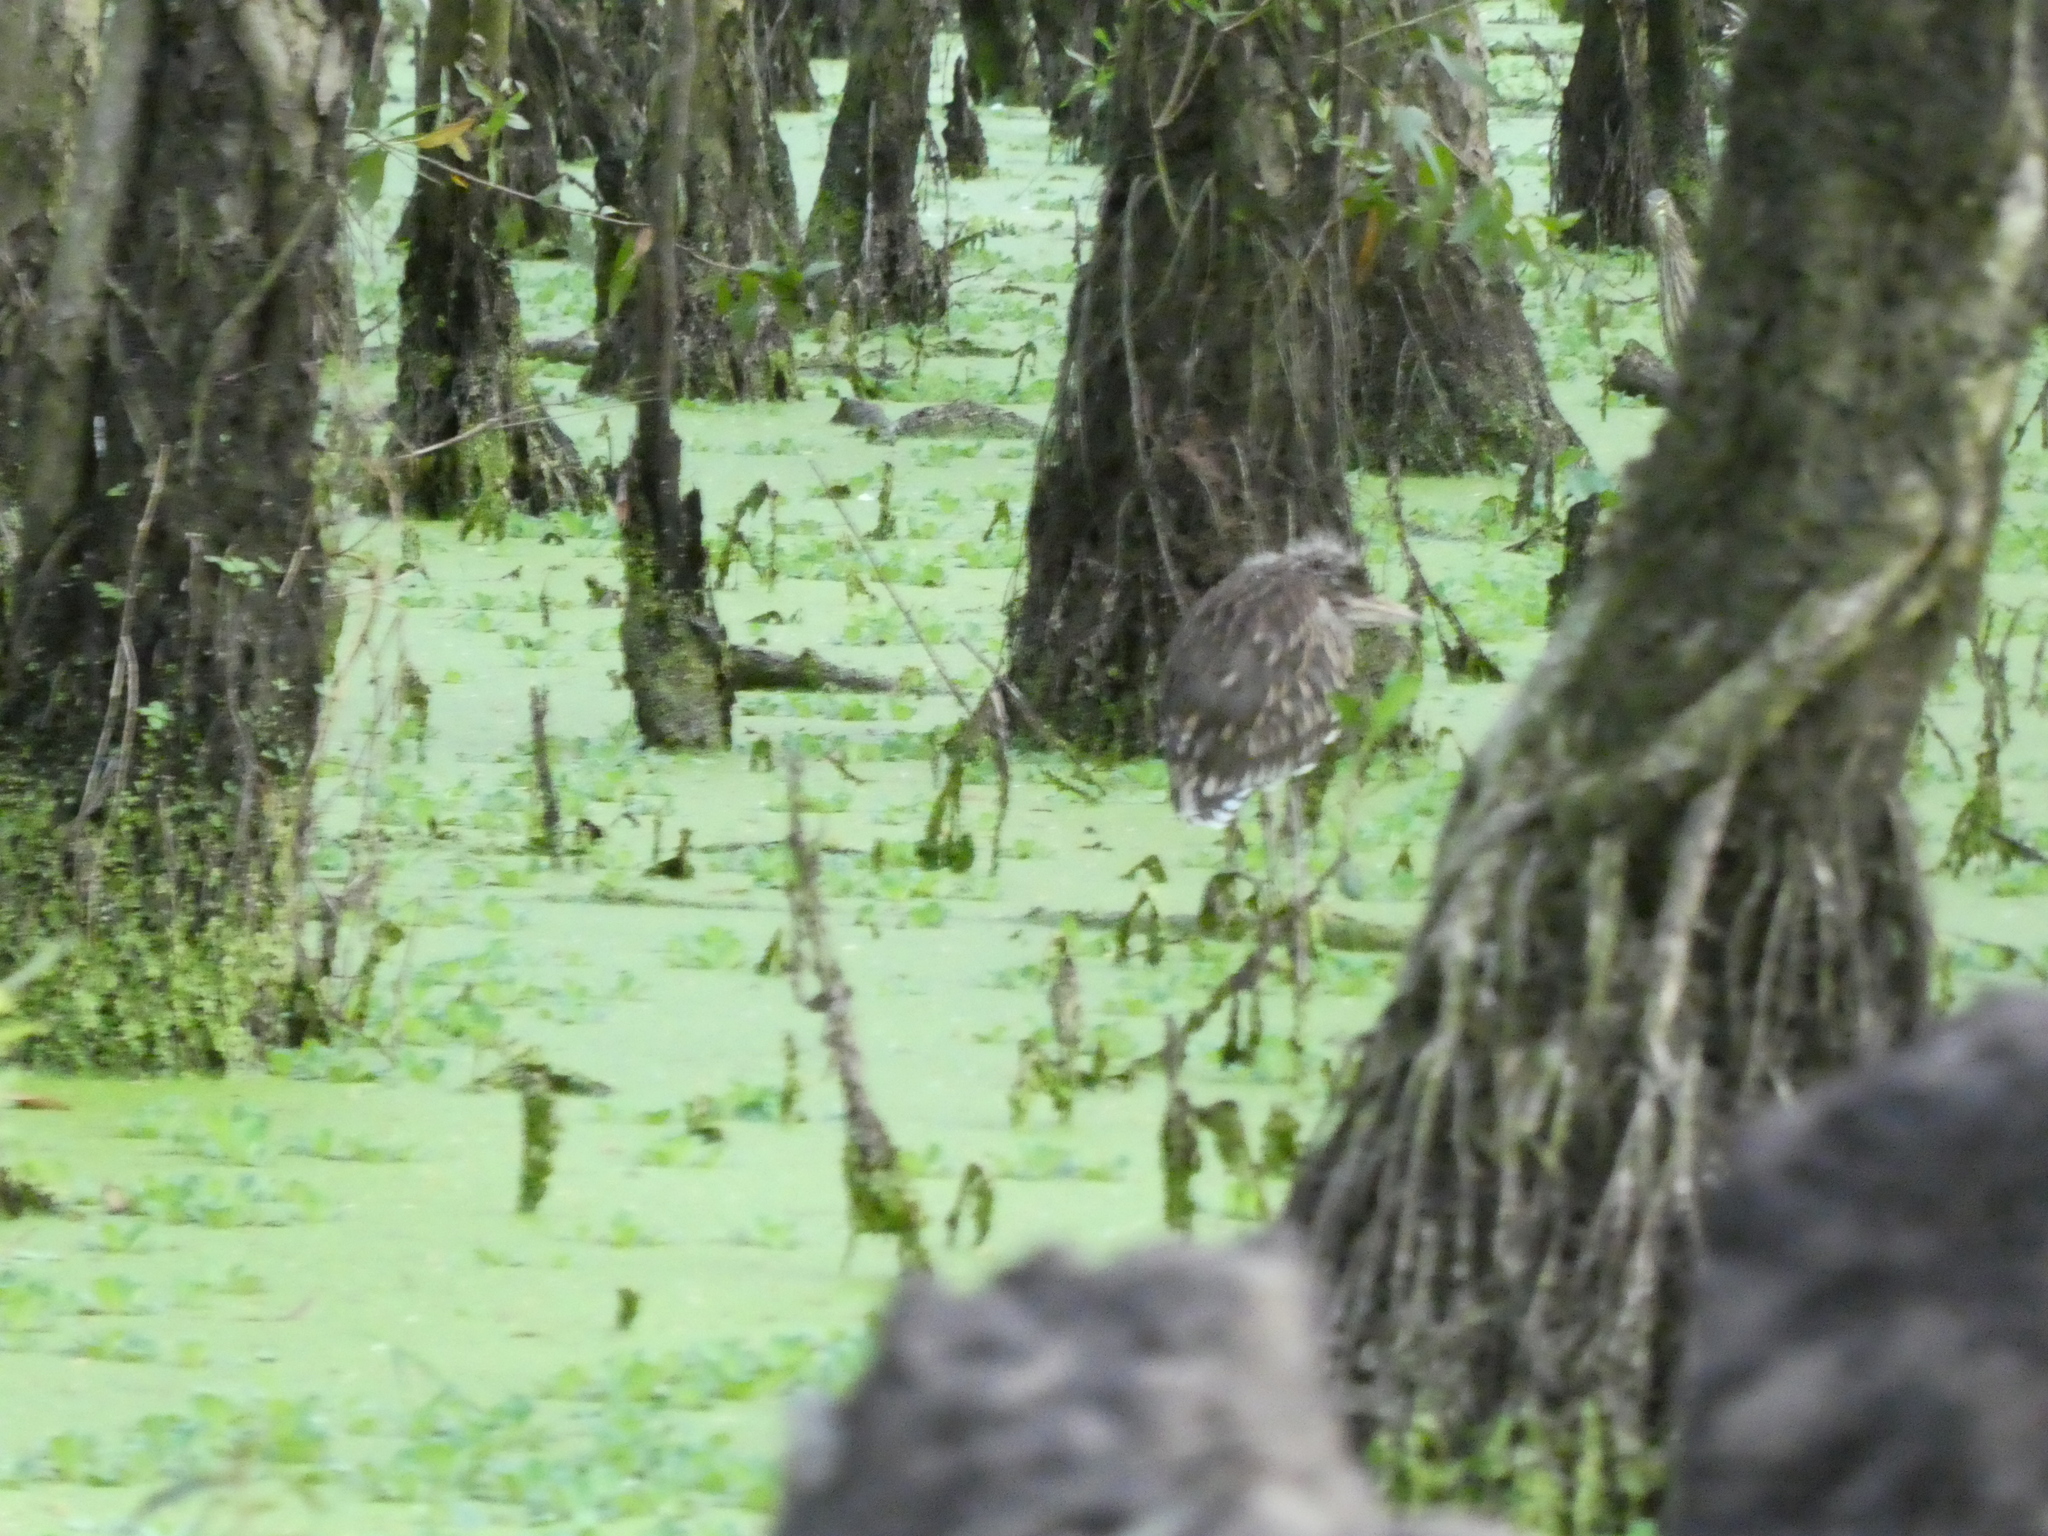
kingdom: Animalia
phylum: Chordata
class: Aves
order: Pelecaniformes
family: Ardeidae
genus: Nycticorax
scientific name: Nycticorax nycticorax
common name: Black-crowned night heron
